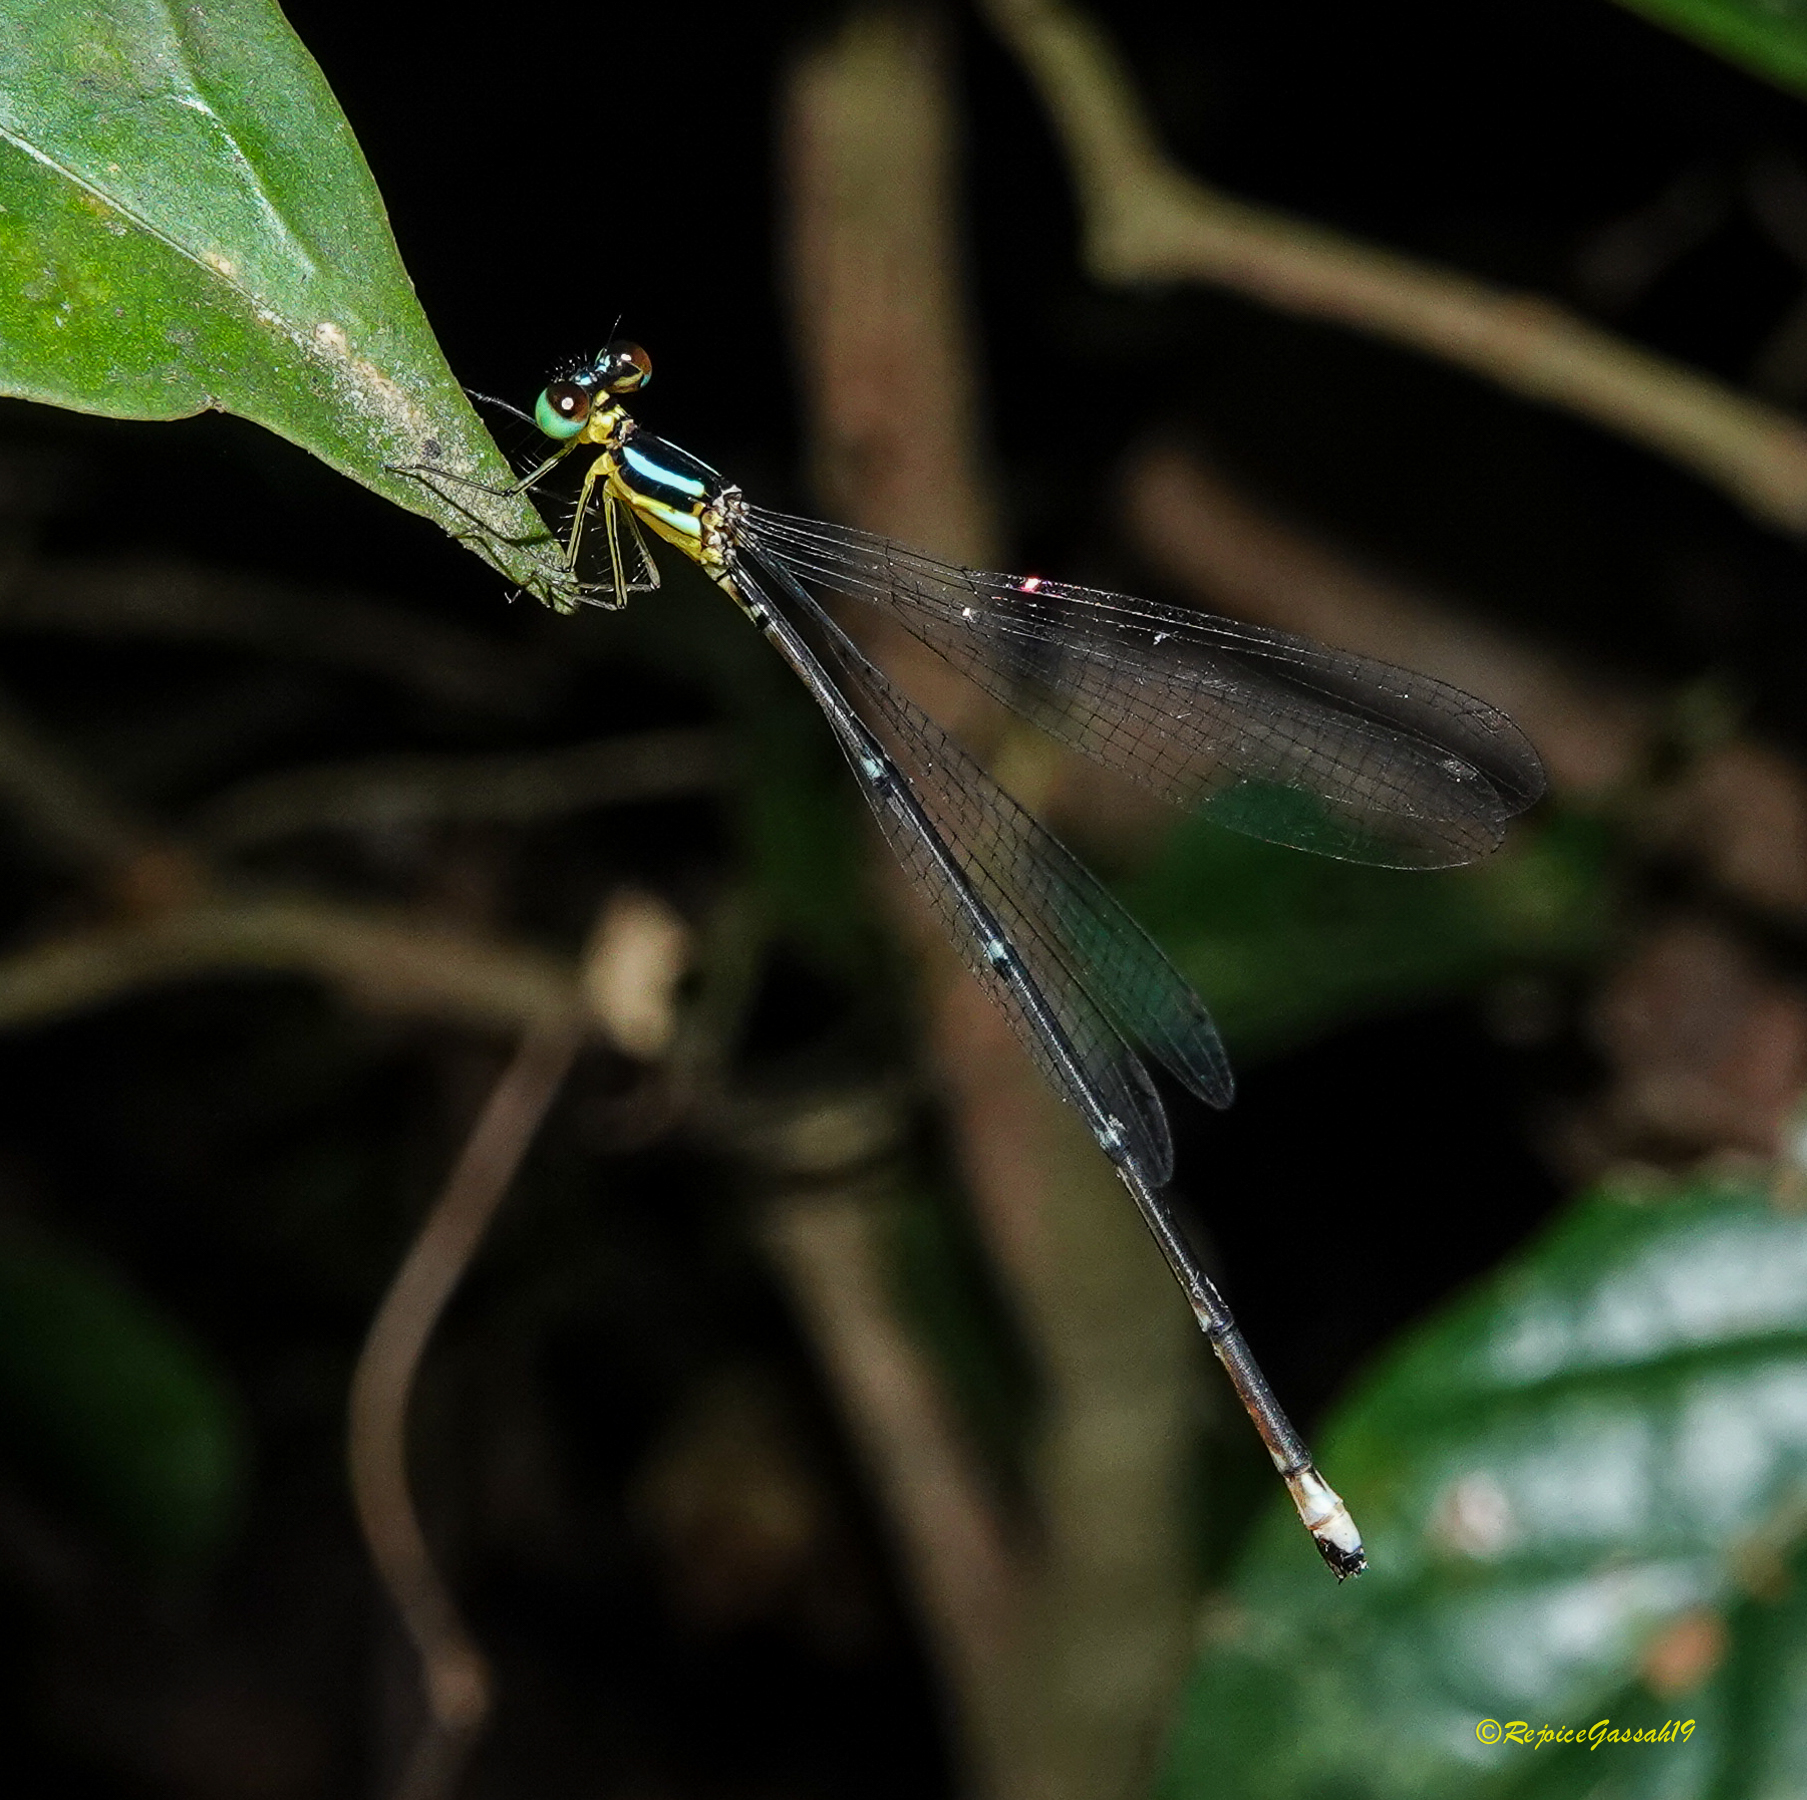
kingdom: Animalia
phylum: Arthropoda
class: Insecta
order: Odonata
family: Platycnemididae
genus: Coeliccia
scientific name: Coeliccia schmidti
